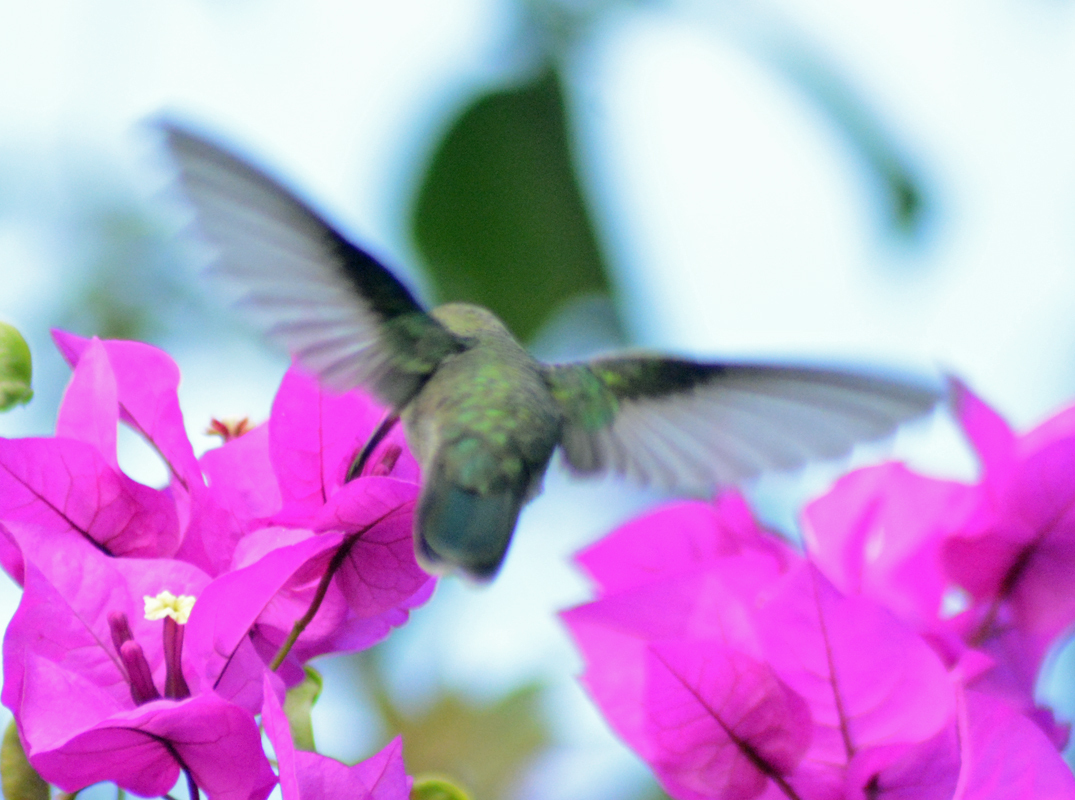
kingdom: Animalia
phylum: Chordata
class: Aves
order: Apodiformes
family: Trochilidae
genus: Cynanthus
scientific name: Cynanthus latirostris
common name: Broad-billed hummingbird
